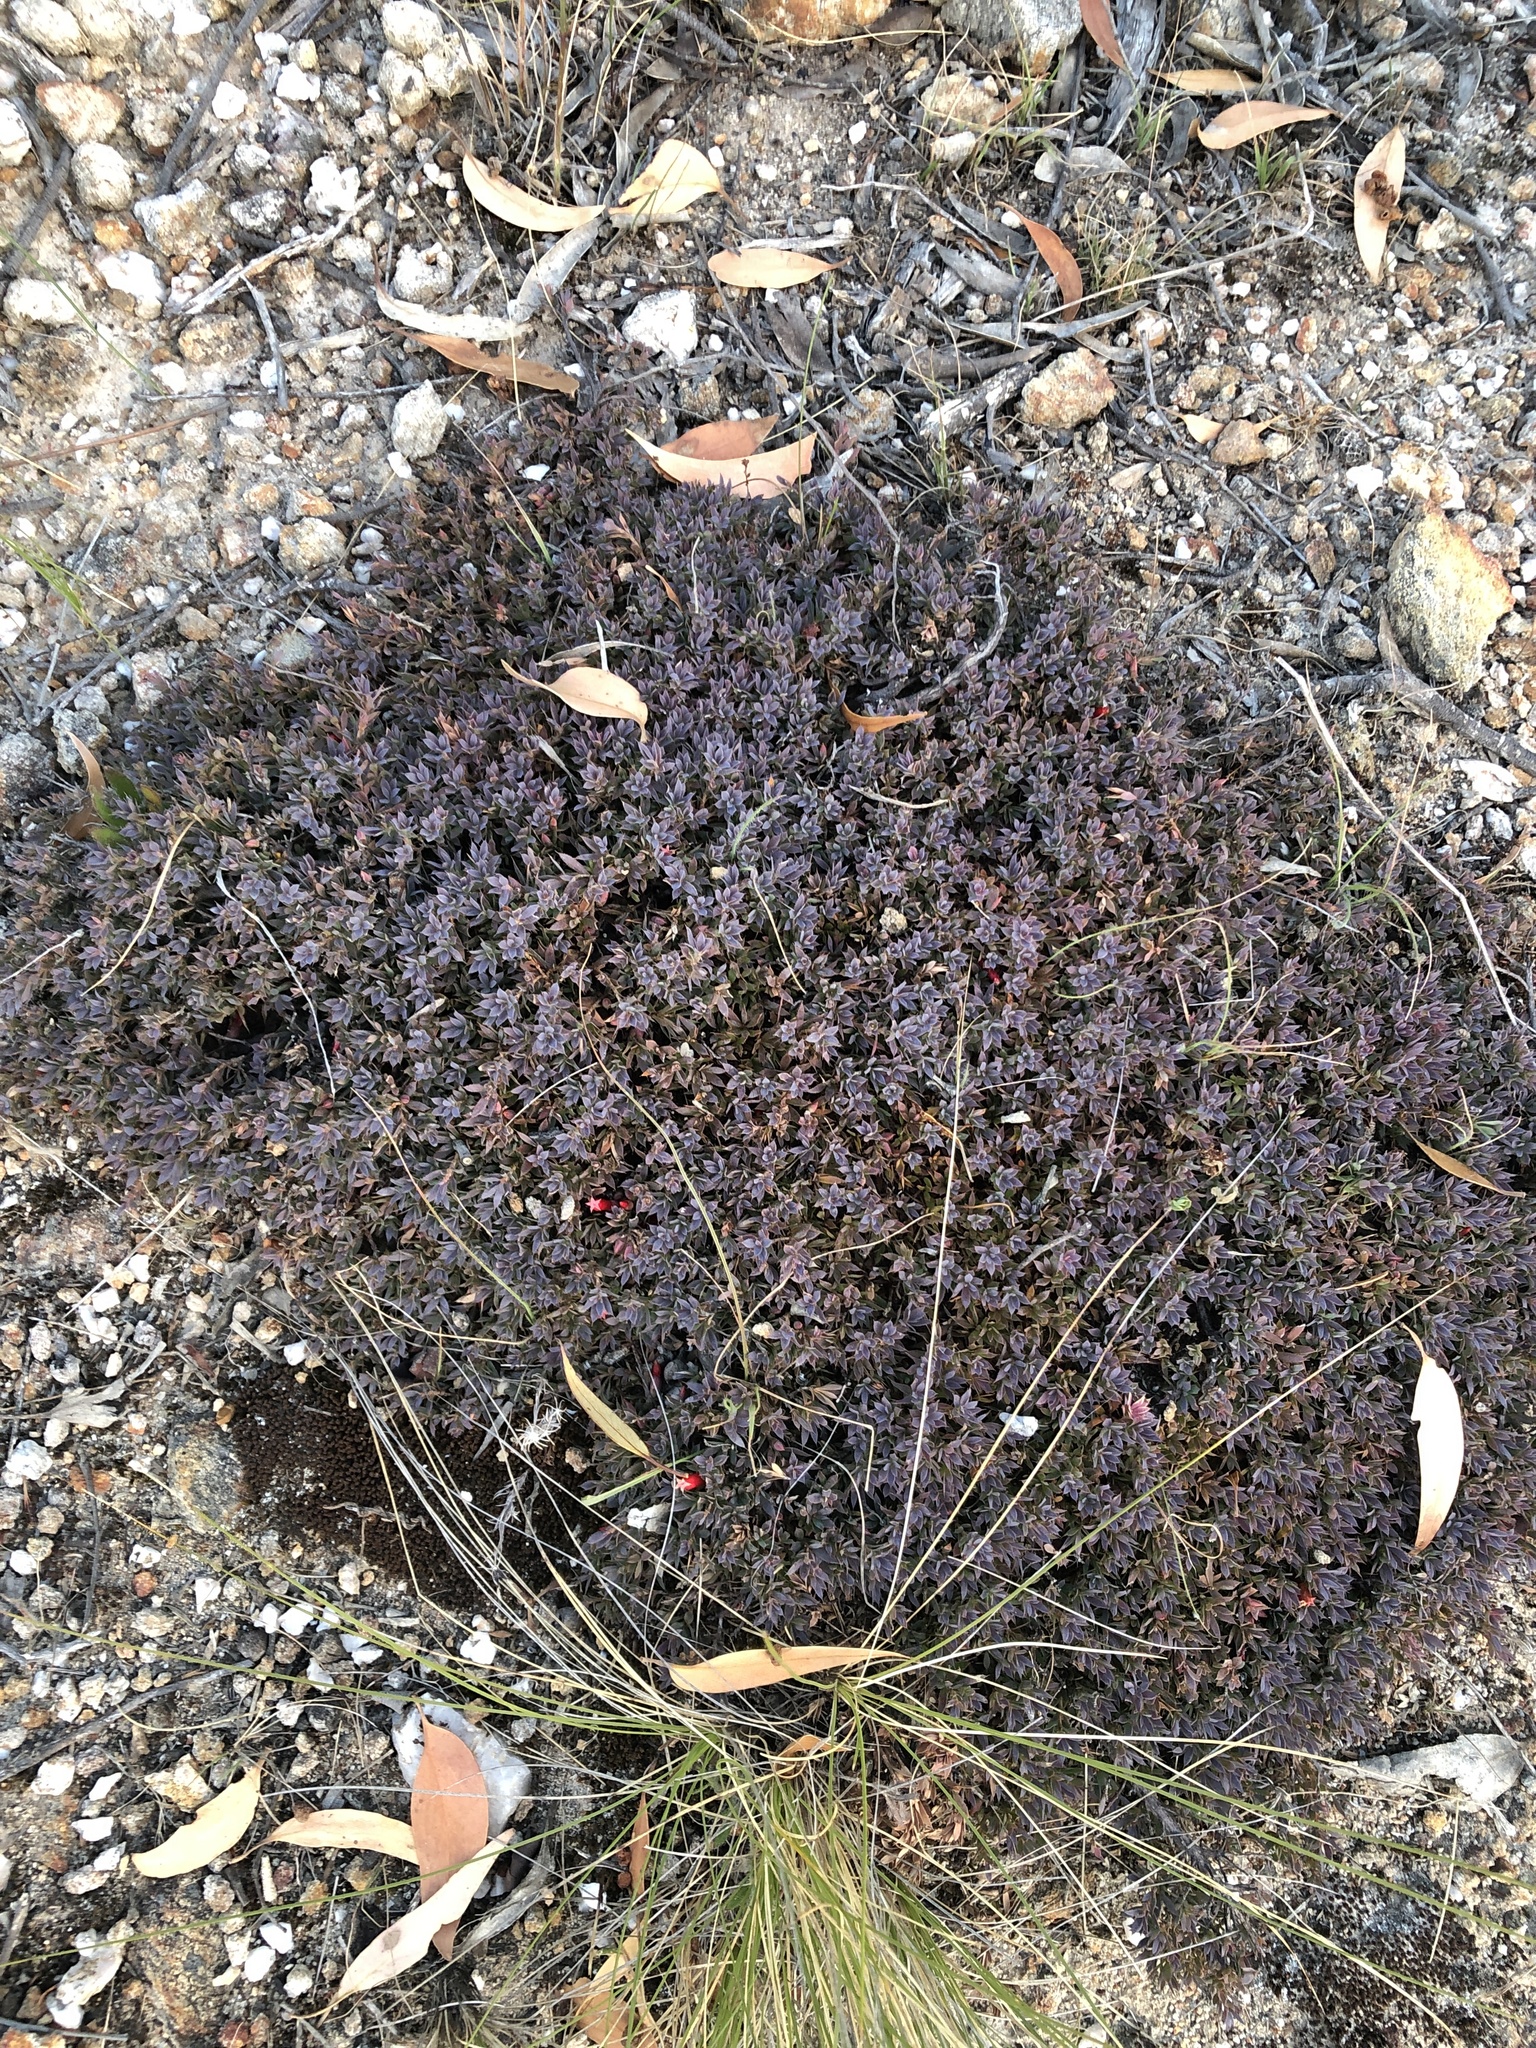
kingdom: Plantae
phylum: Tracheophyta
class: Magnoliopsida
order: Ericales
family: Ericaceae
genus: Styphelia
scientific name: Styphelia humifusa
